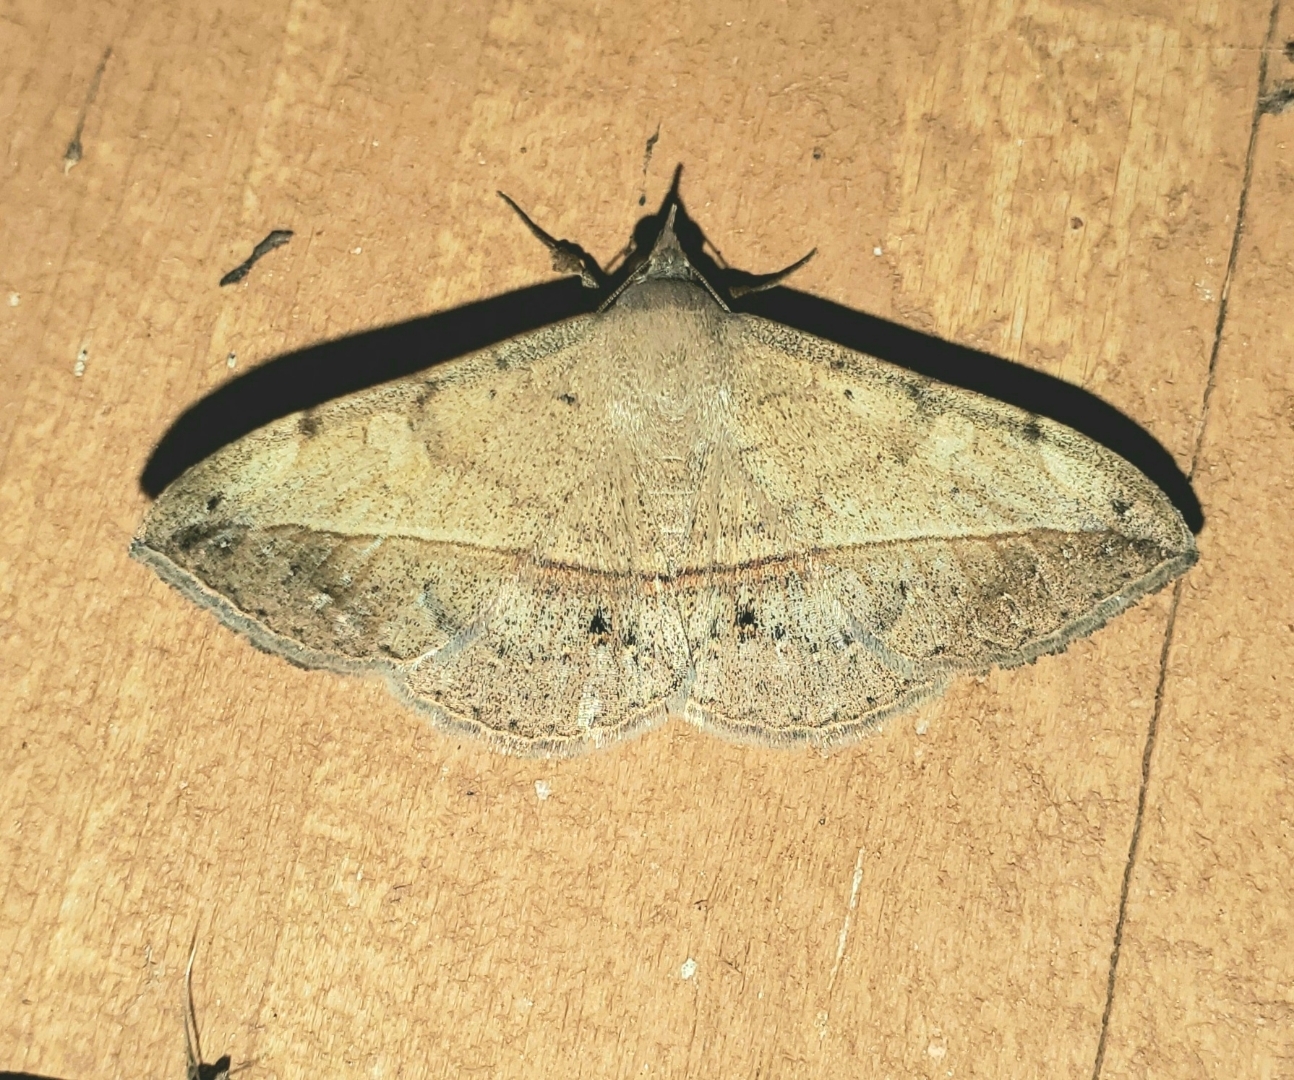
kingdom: Animalia
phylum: Arthropoda
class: Insecta
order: Lepidoptera
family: Erebidae
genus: Anticarsia
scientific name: Anticarsia gemmatalis
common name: Cutworm moth
